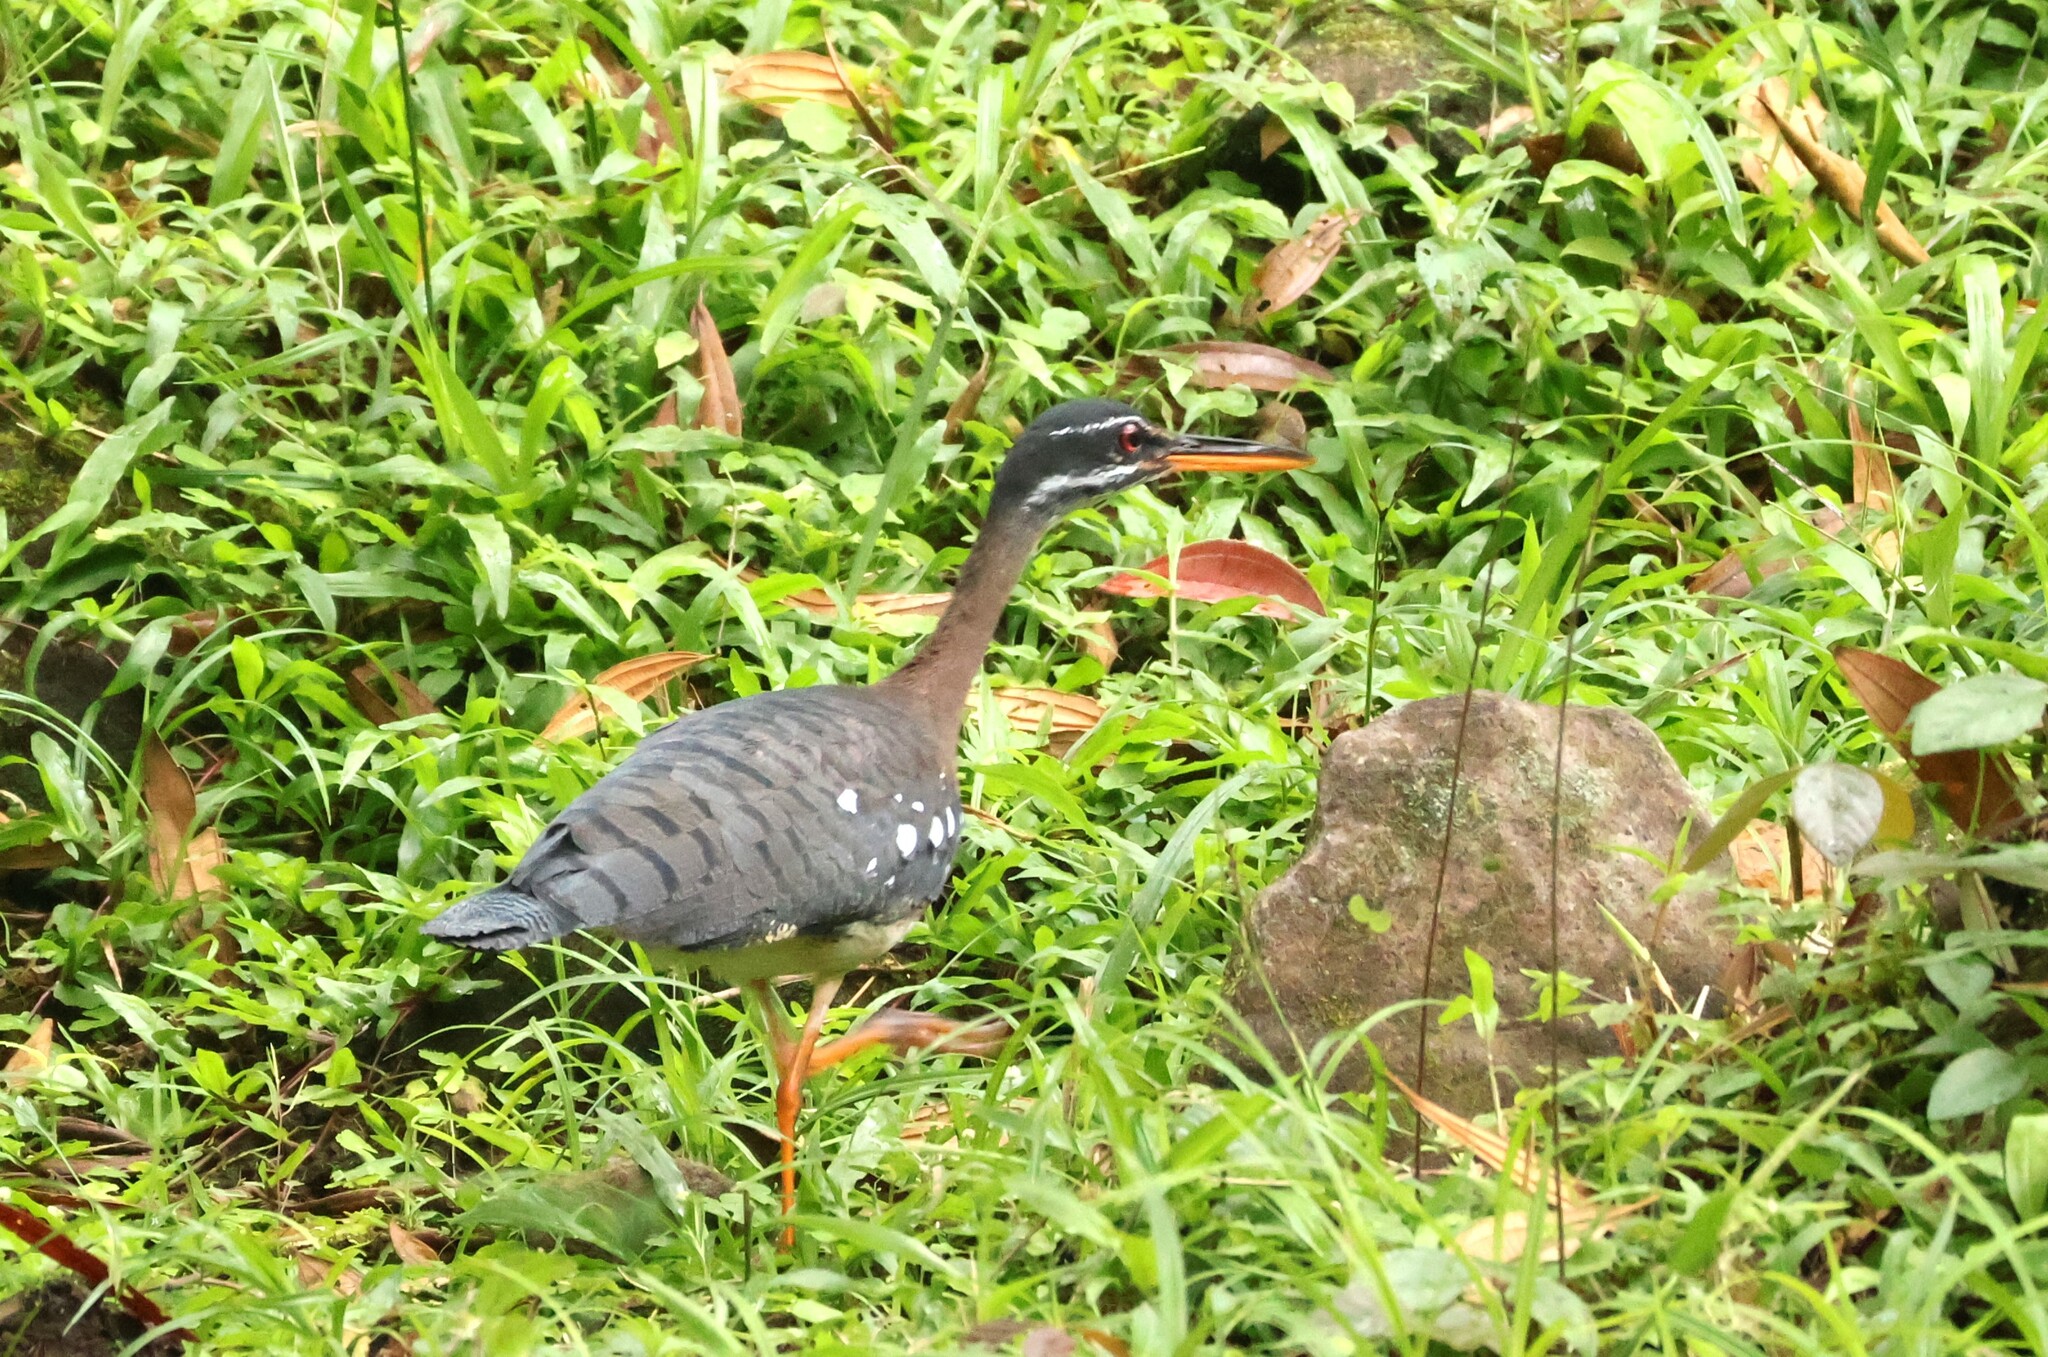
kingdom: Animalia
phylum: Chordata
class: Aves
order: Eurypygiformes
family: Eurypygidae
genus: Eurypyga
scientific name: Eurypyga helias
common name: Sunbittern
